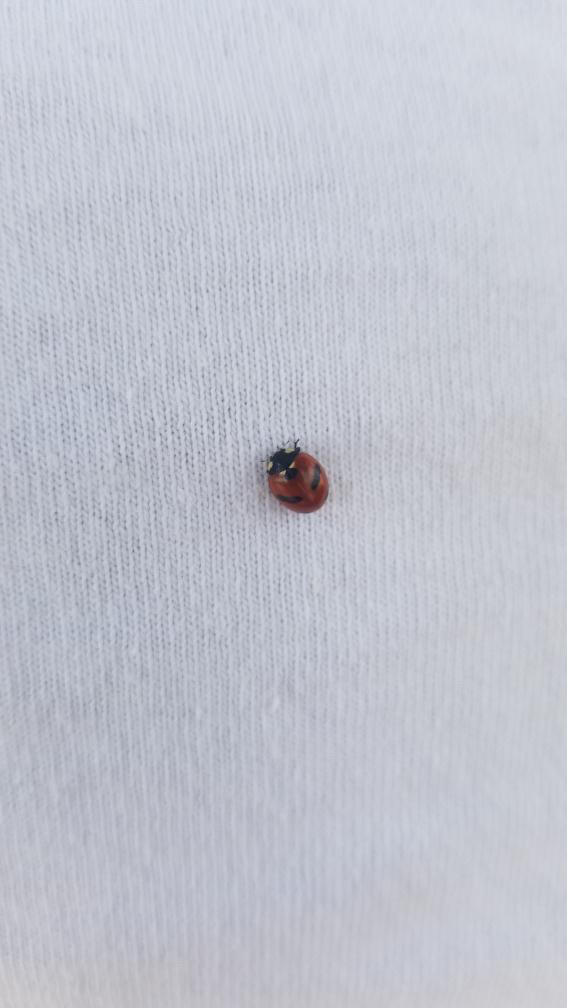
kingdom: Animalia
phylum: Arthropoda
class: Insecta
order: Coleoptera
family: Coccinellidae
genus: Coccinella
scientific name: Coccinella monticola
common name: Mountain lady beetle
